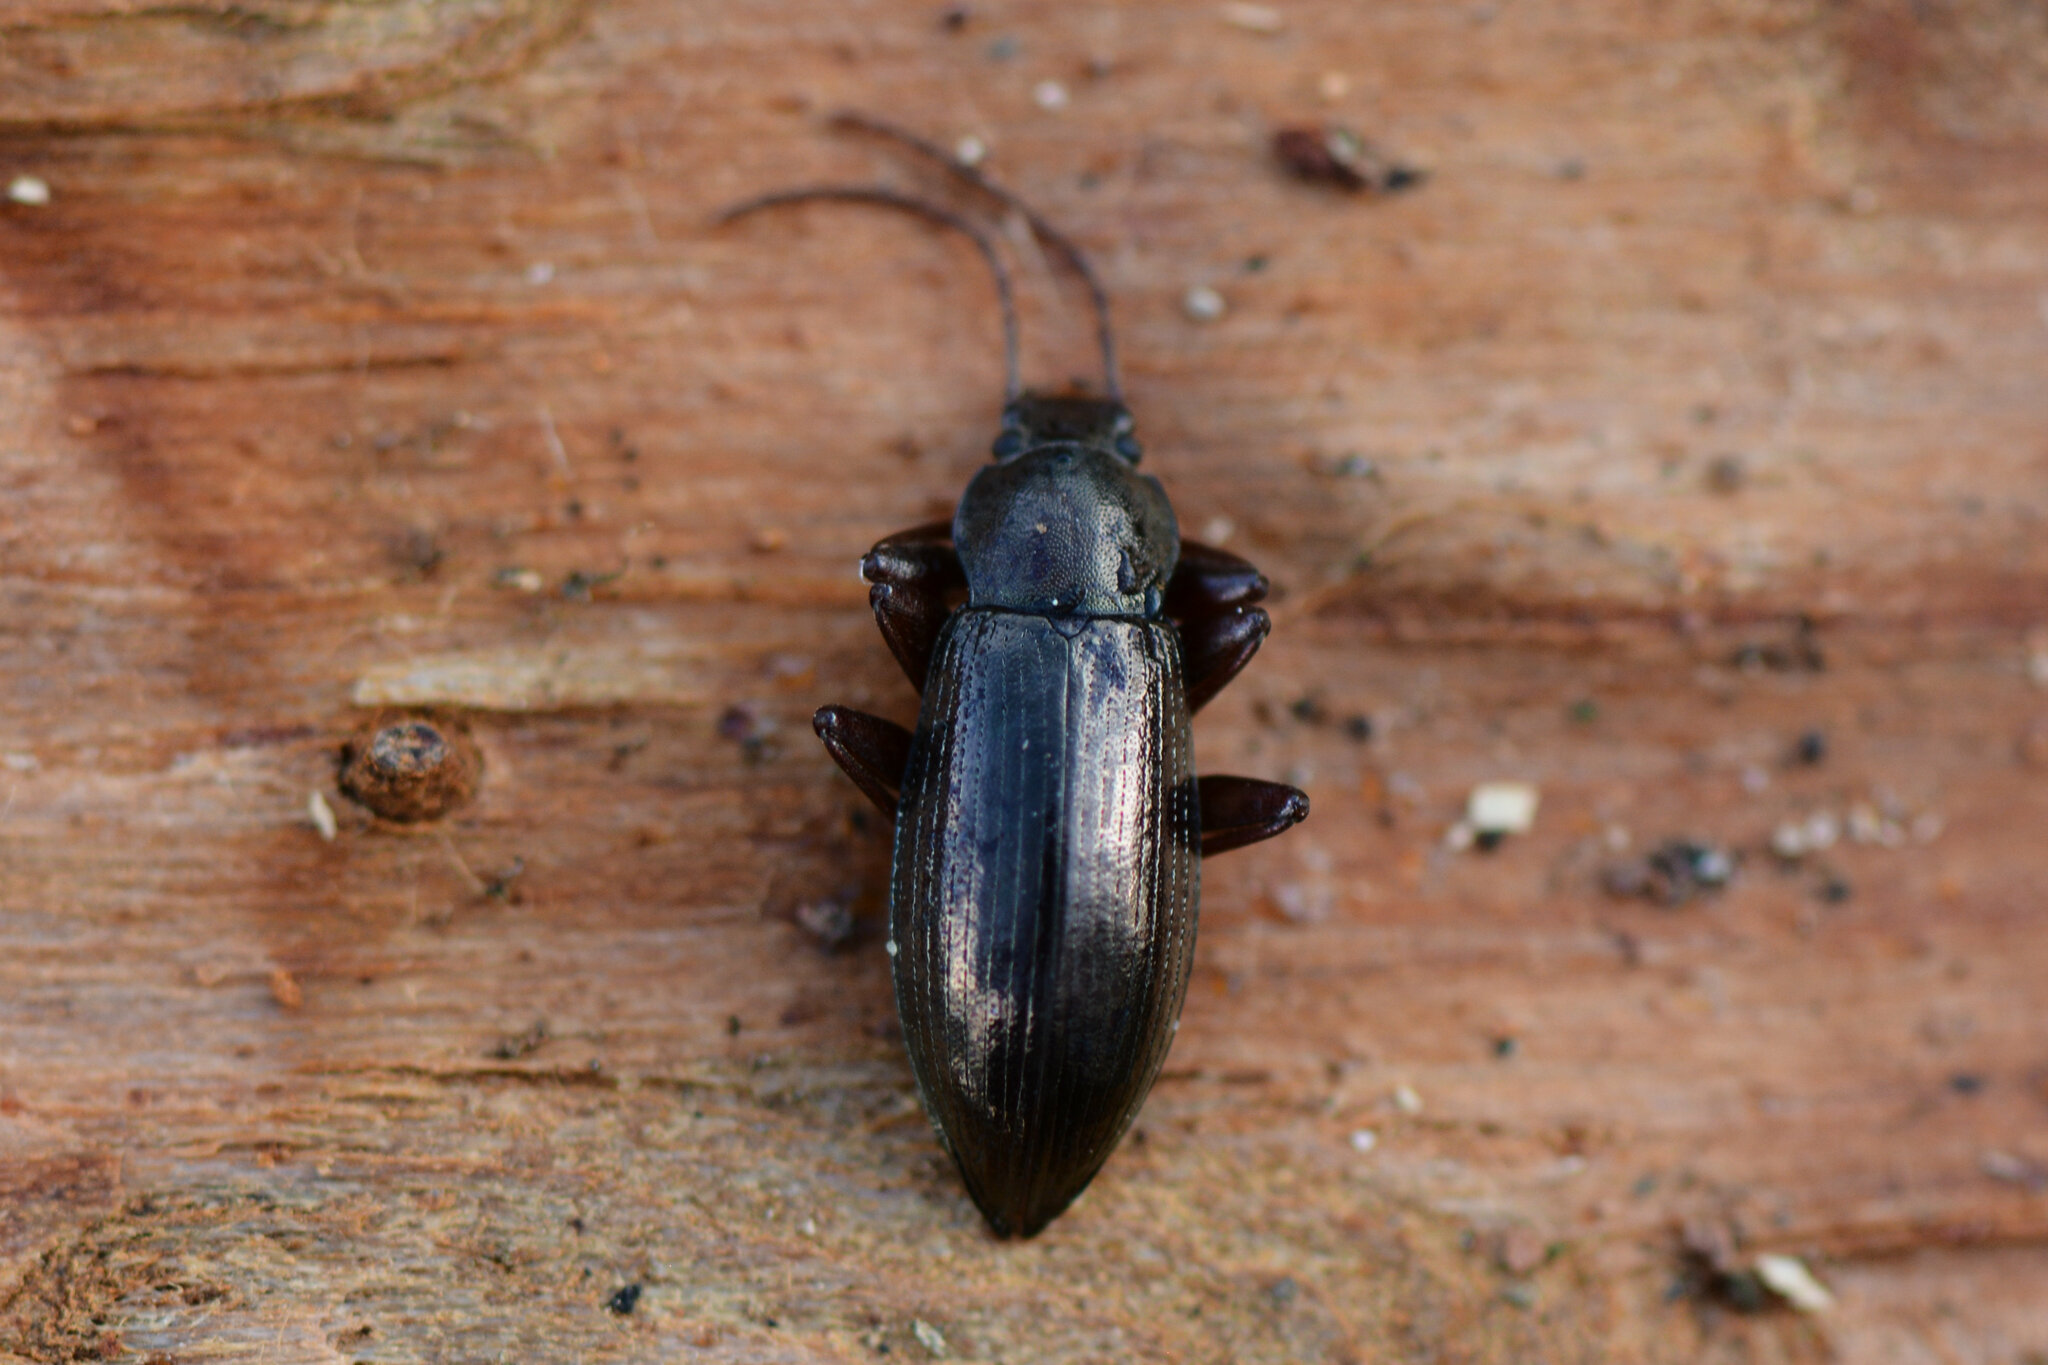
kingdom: Animalia
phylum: Arthropoda
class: Insecta
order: Coleoptera
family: Tenebrionidae
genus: Stenomax
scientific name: Stenomax aeneus
